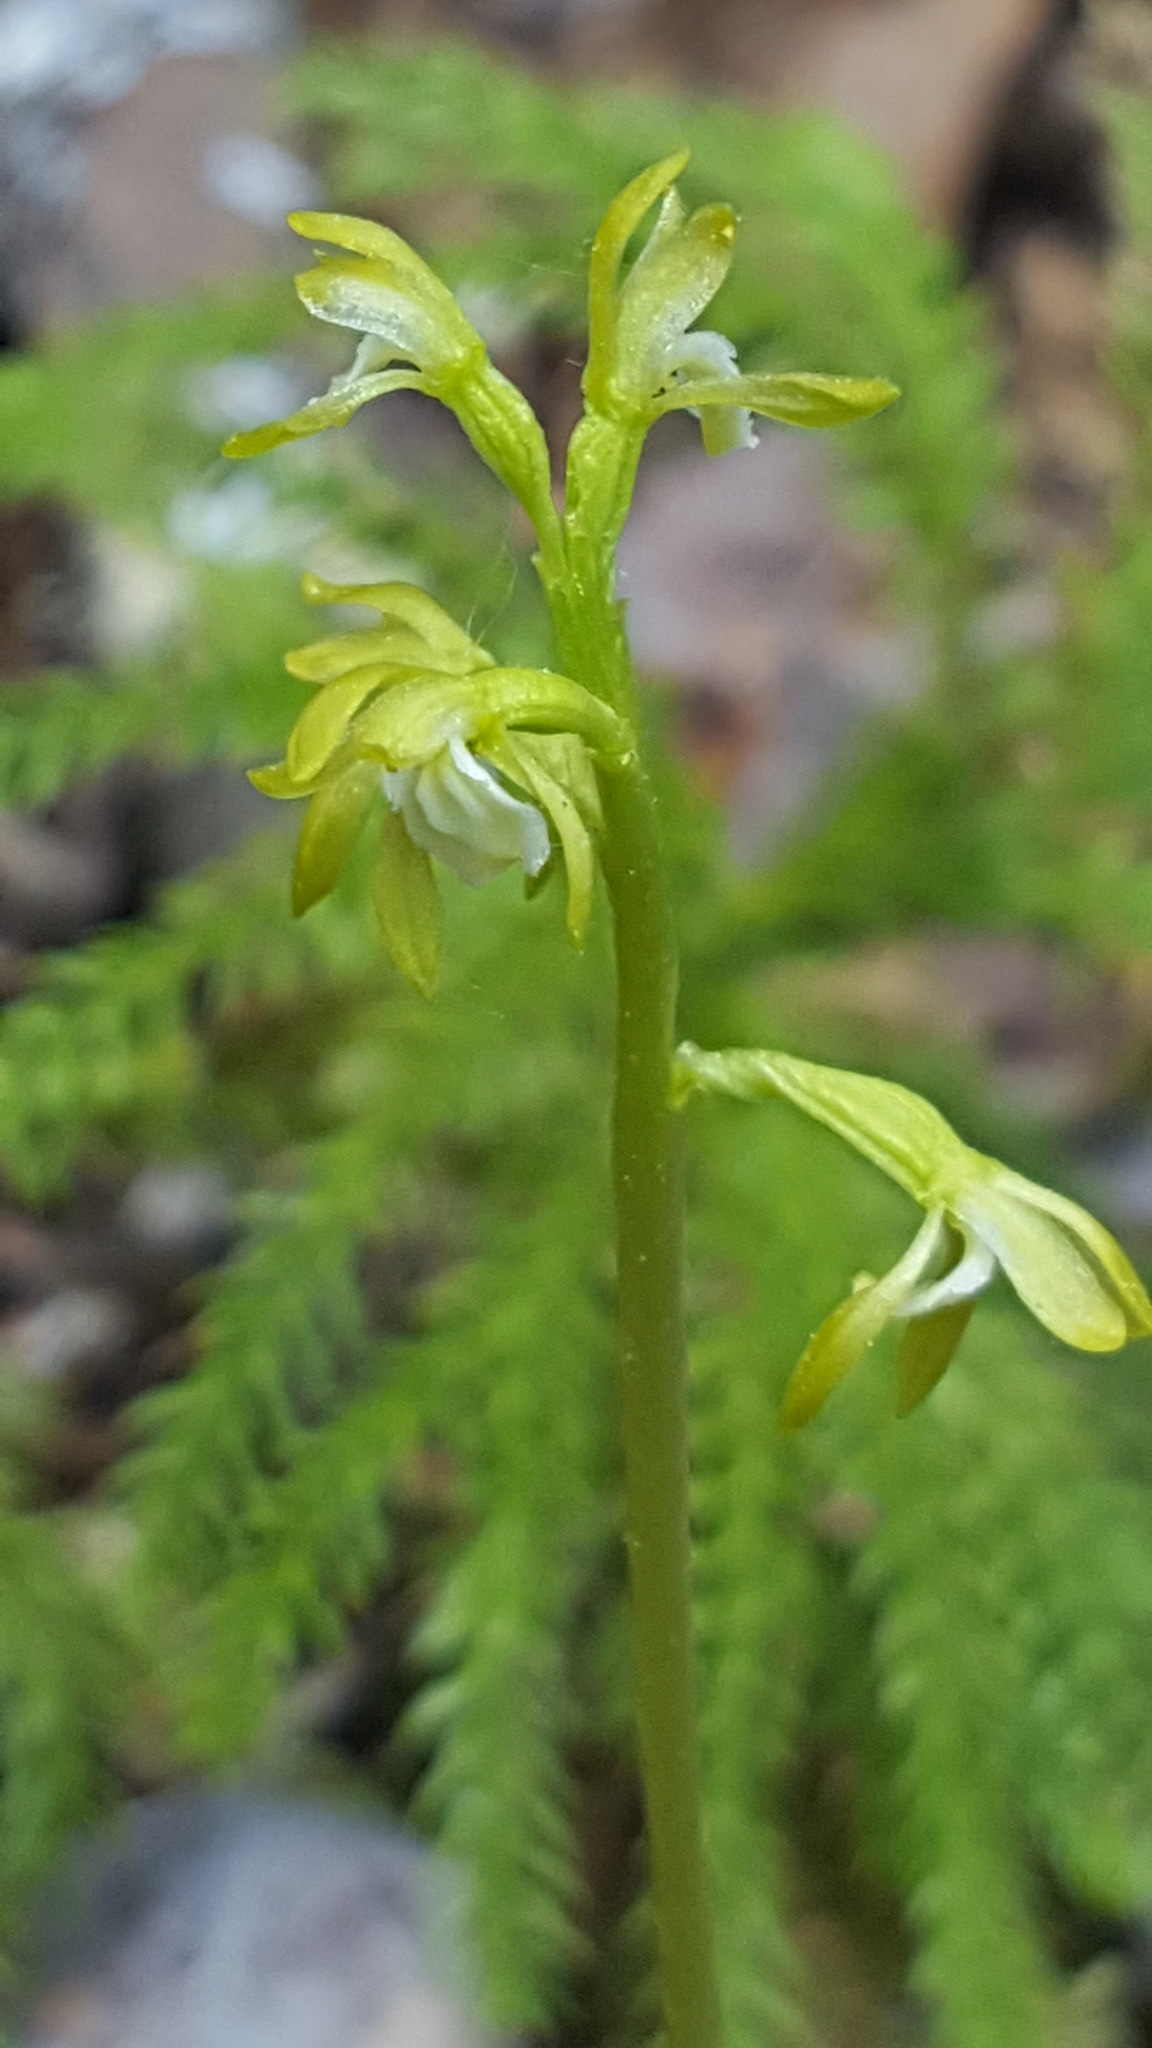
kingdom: Plantae
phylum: Tracheophyta
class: Liliopsida
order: Asparagales
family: Orchidaceae
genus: Corallorhiza
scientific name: Corallorhiza trifida
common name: Yellow coralroot
